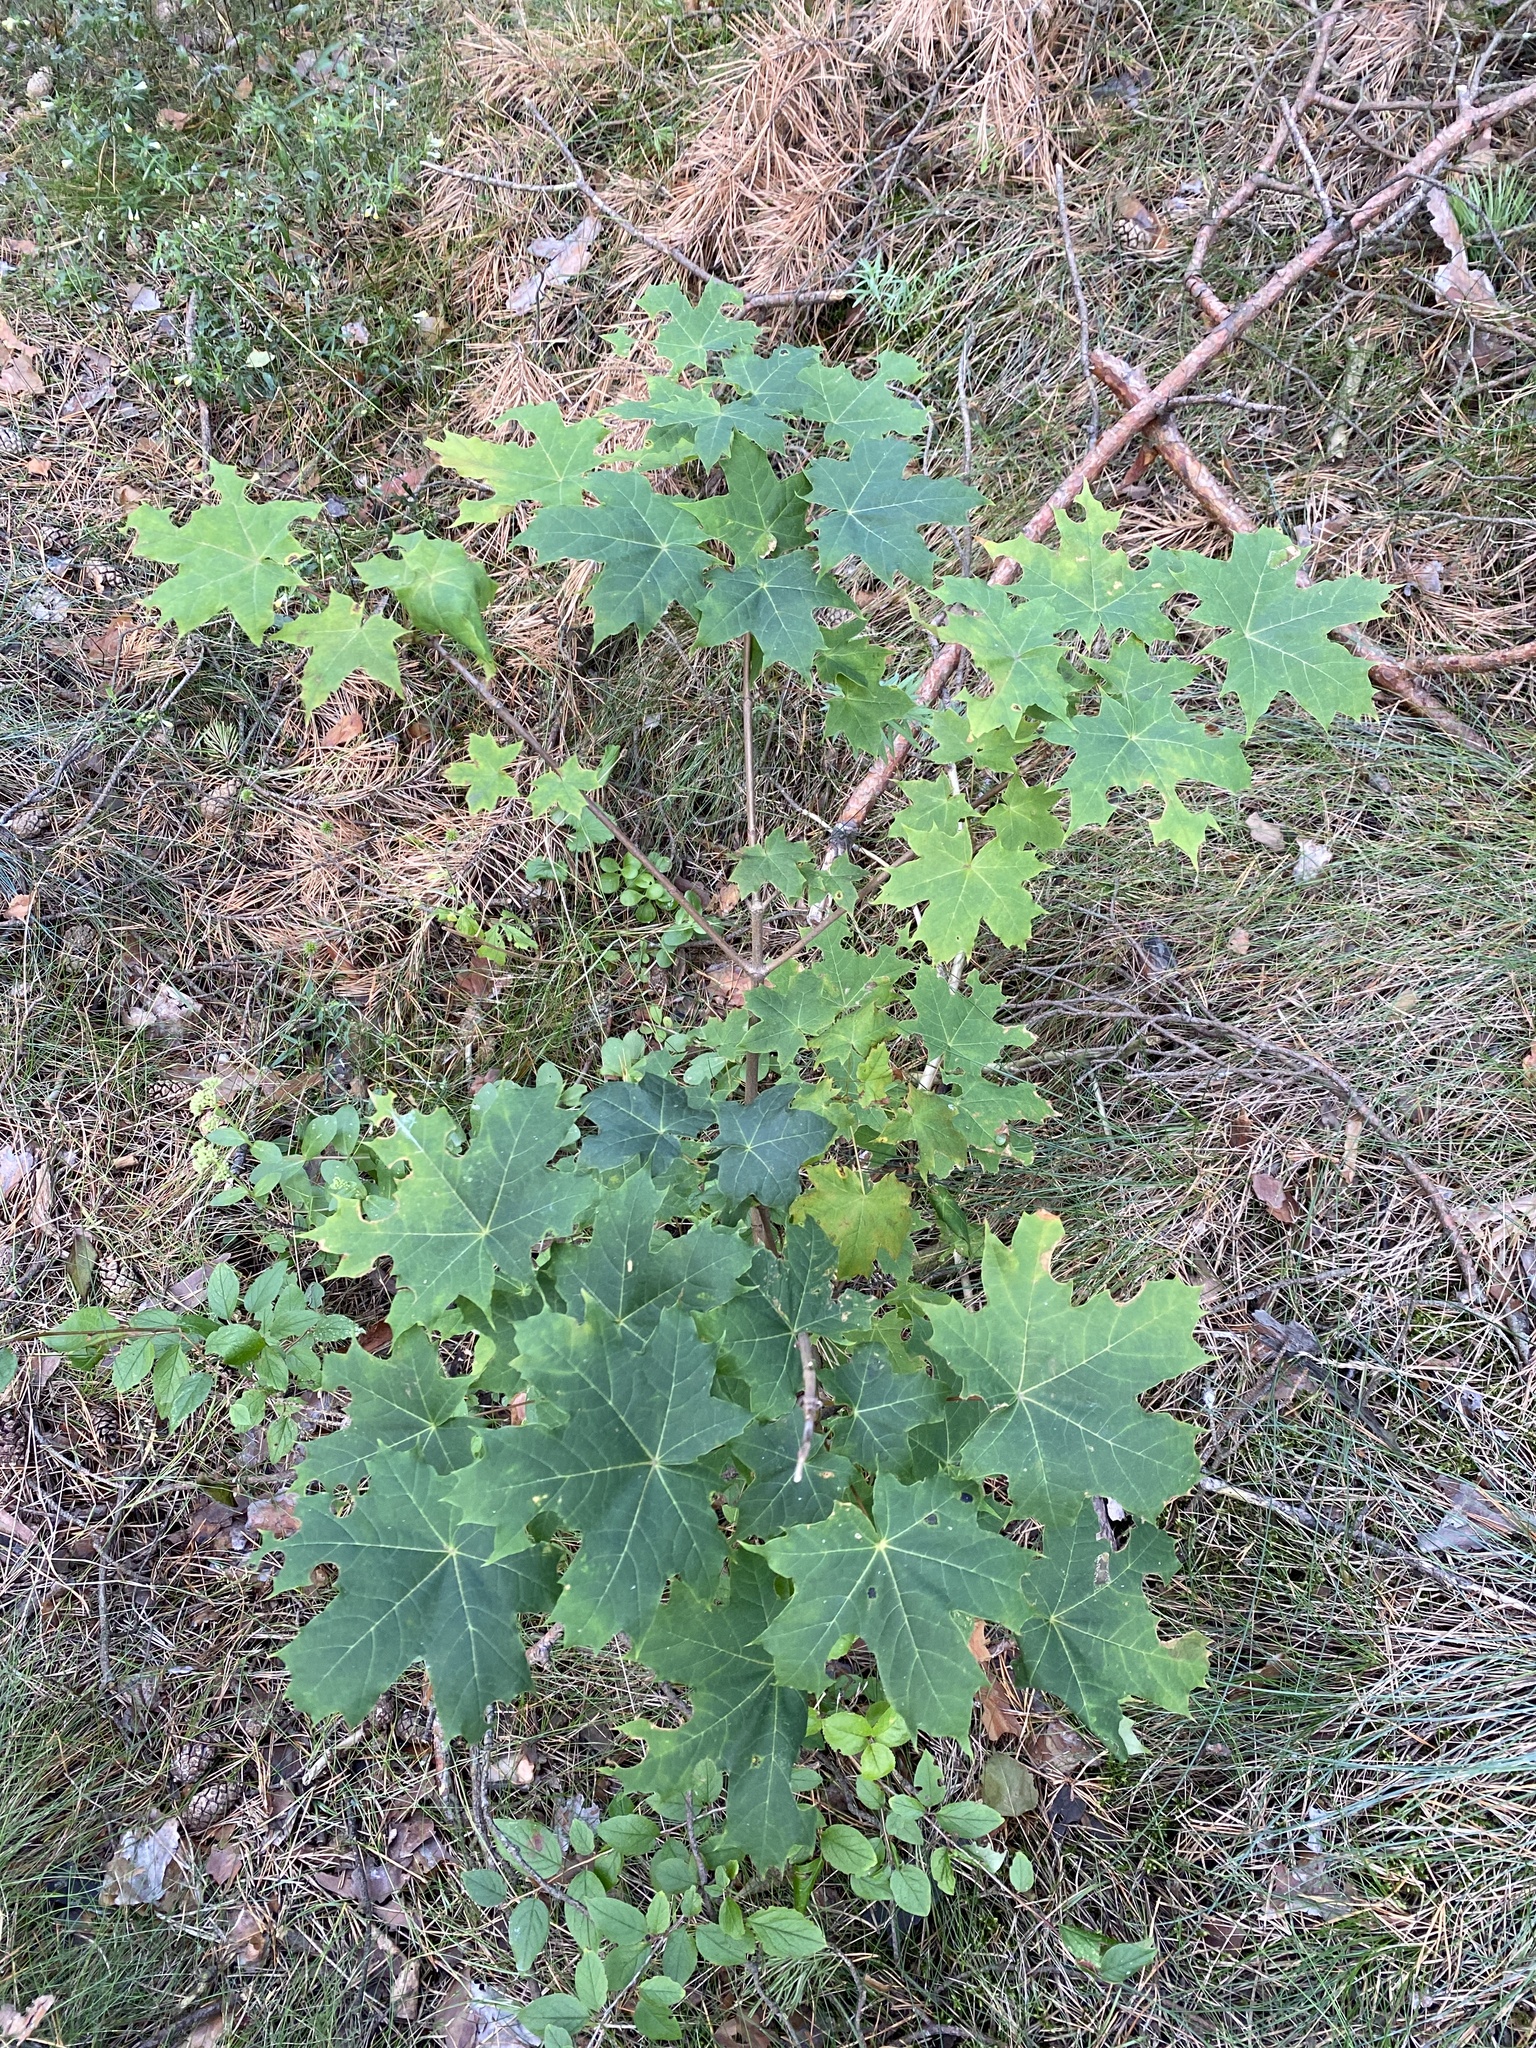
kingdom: Plantae
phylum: Tracheophyta
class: Magnoliopsida
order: Sapindales
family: Sapindaceae
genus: Acer
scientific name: Acer platanoides
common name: Norway maple
